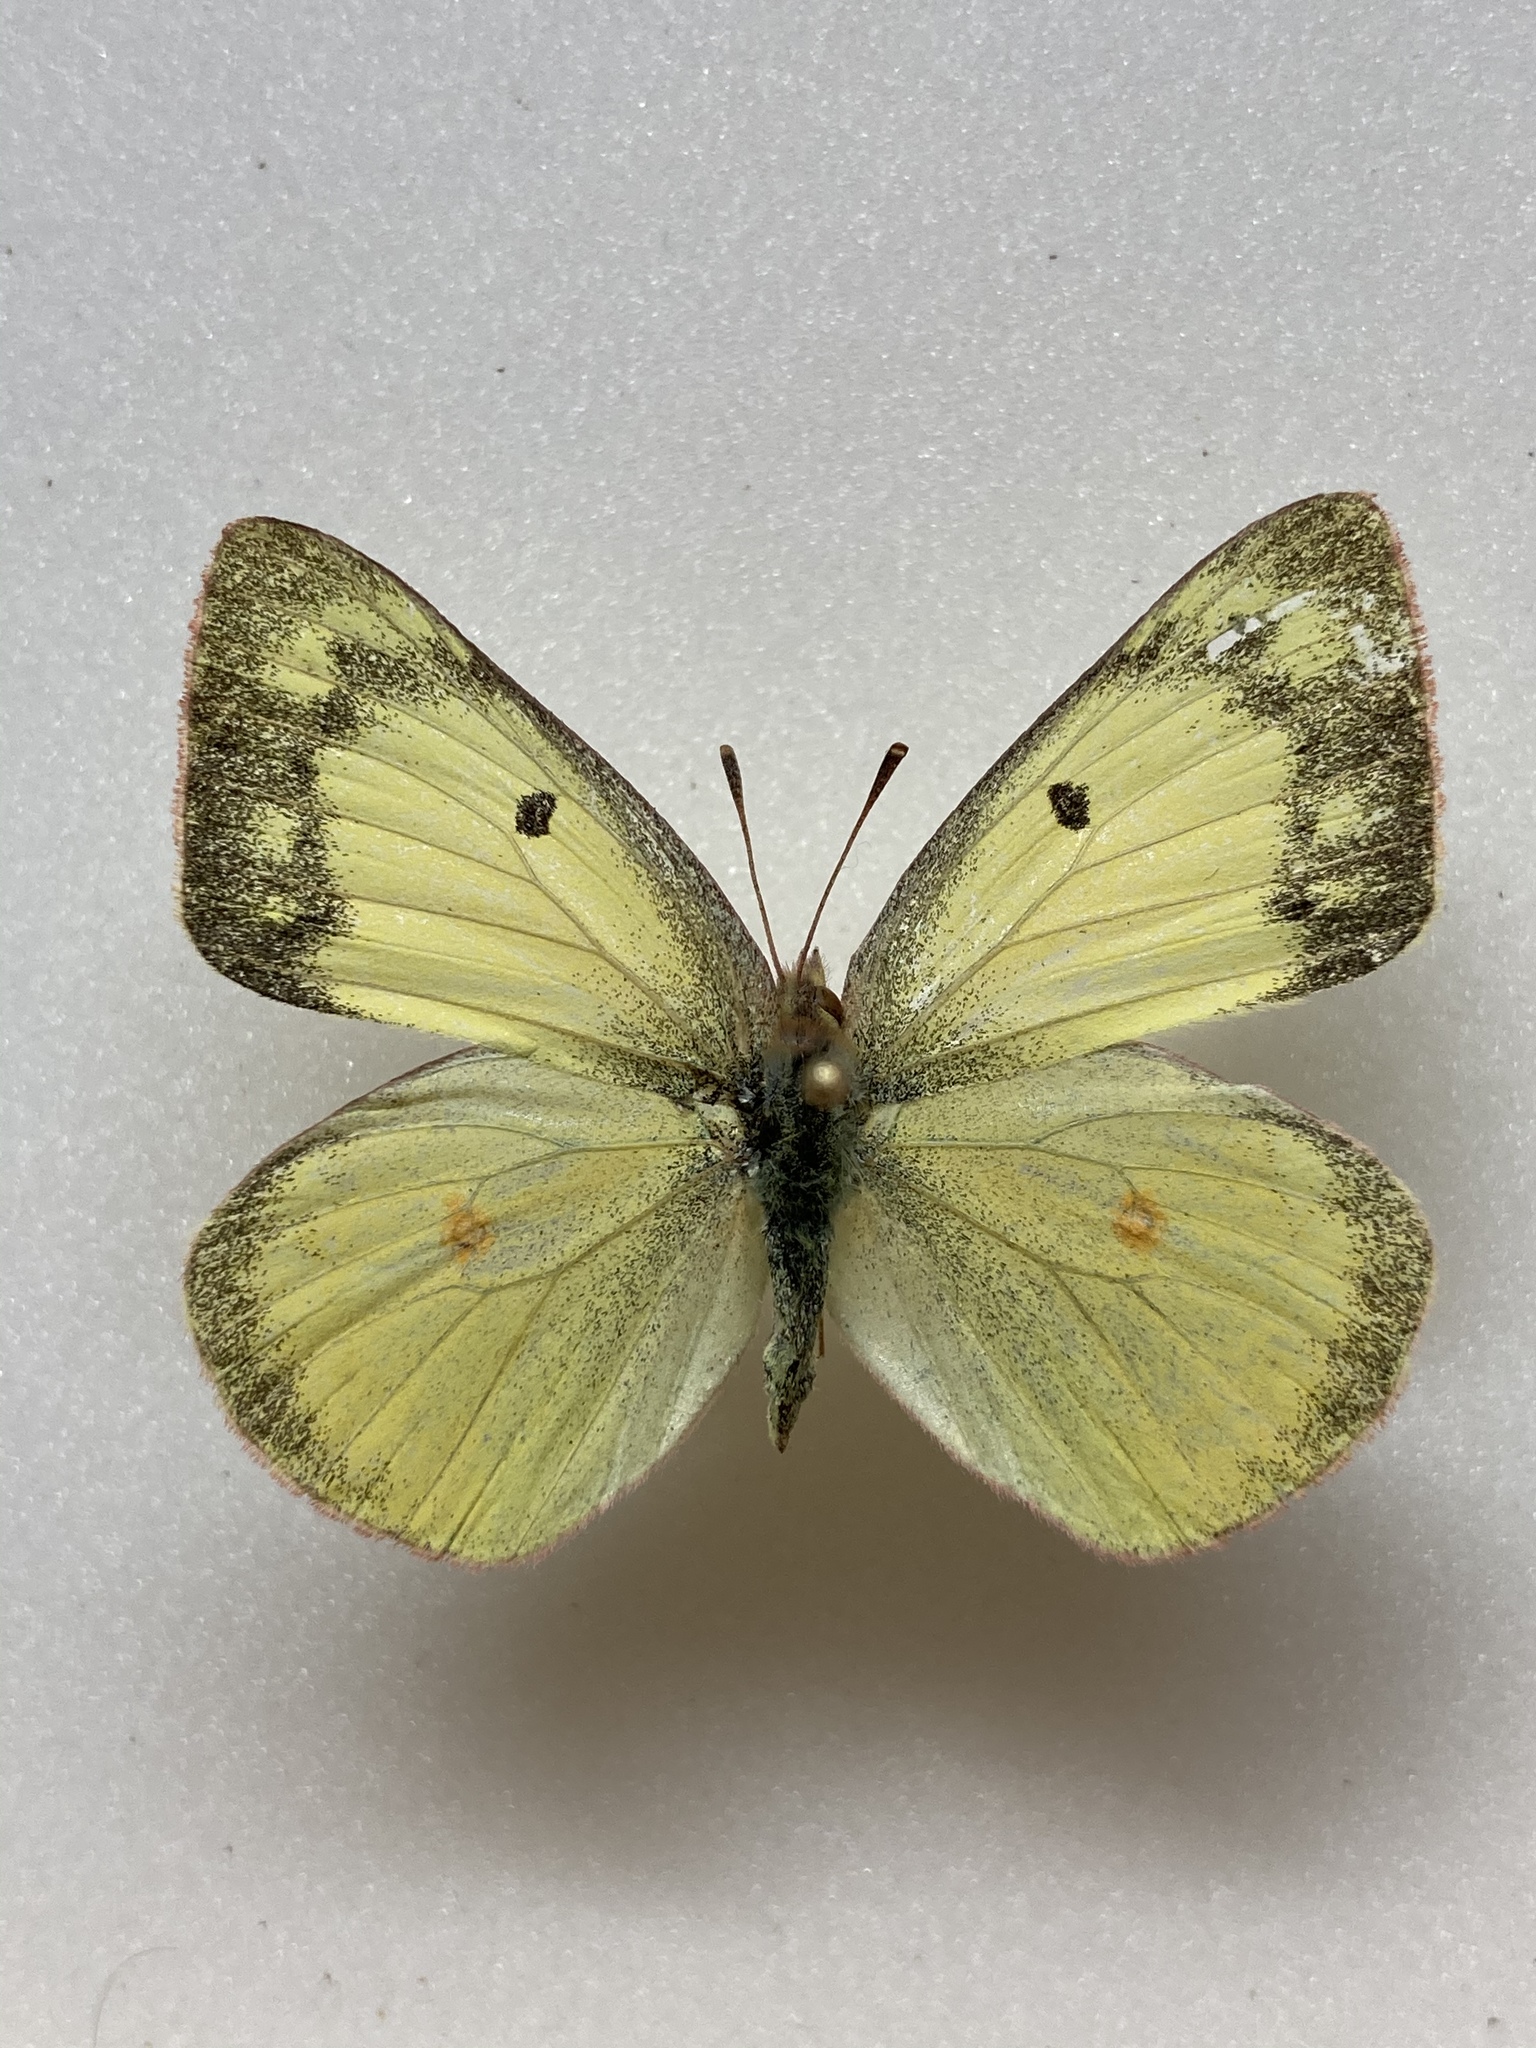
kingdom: Animalia
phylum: Arthropoda
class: Insecta
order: Lepidoptera
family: Pieridae
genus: Colias
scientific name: Colias philodice
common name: Clouded sulphur
